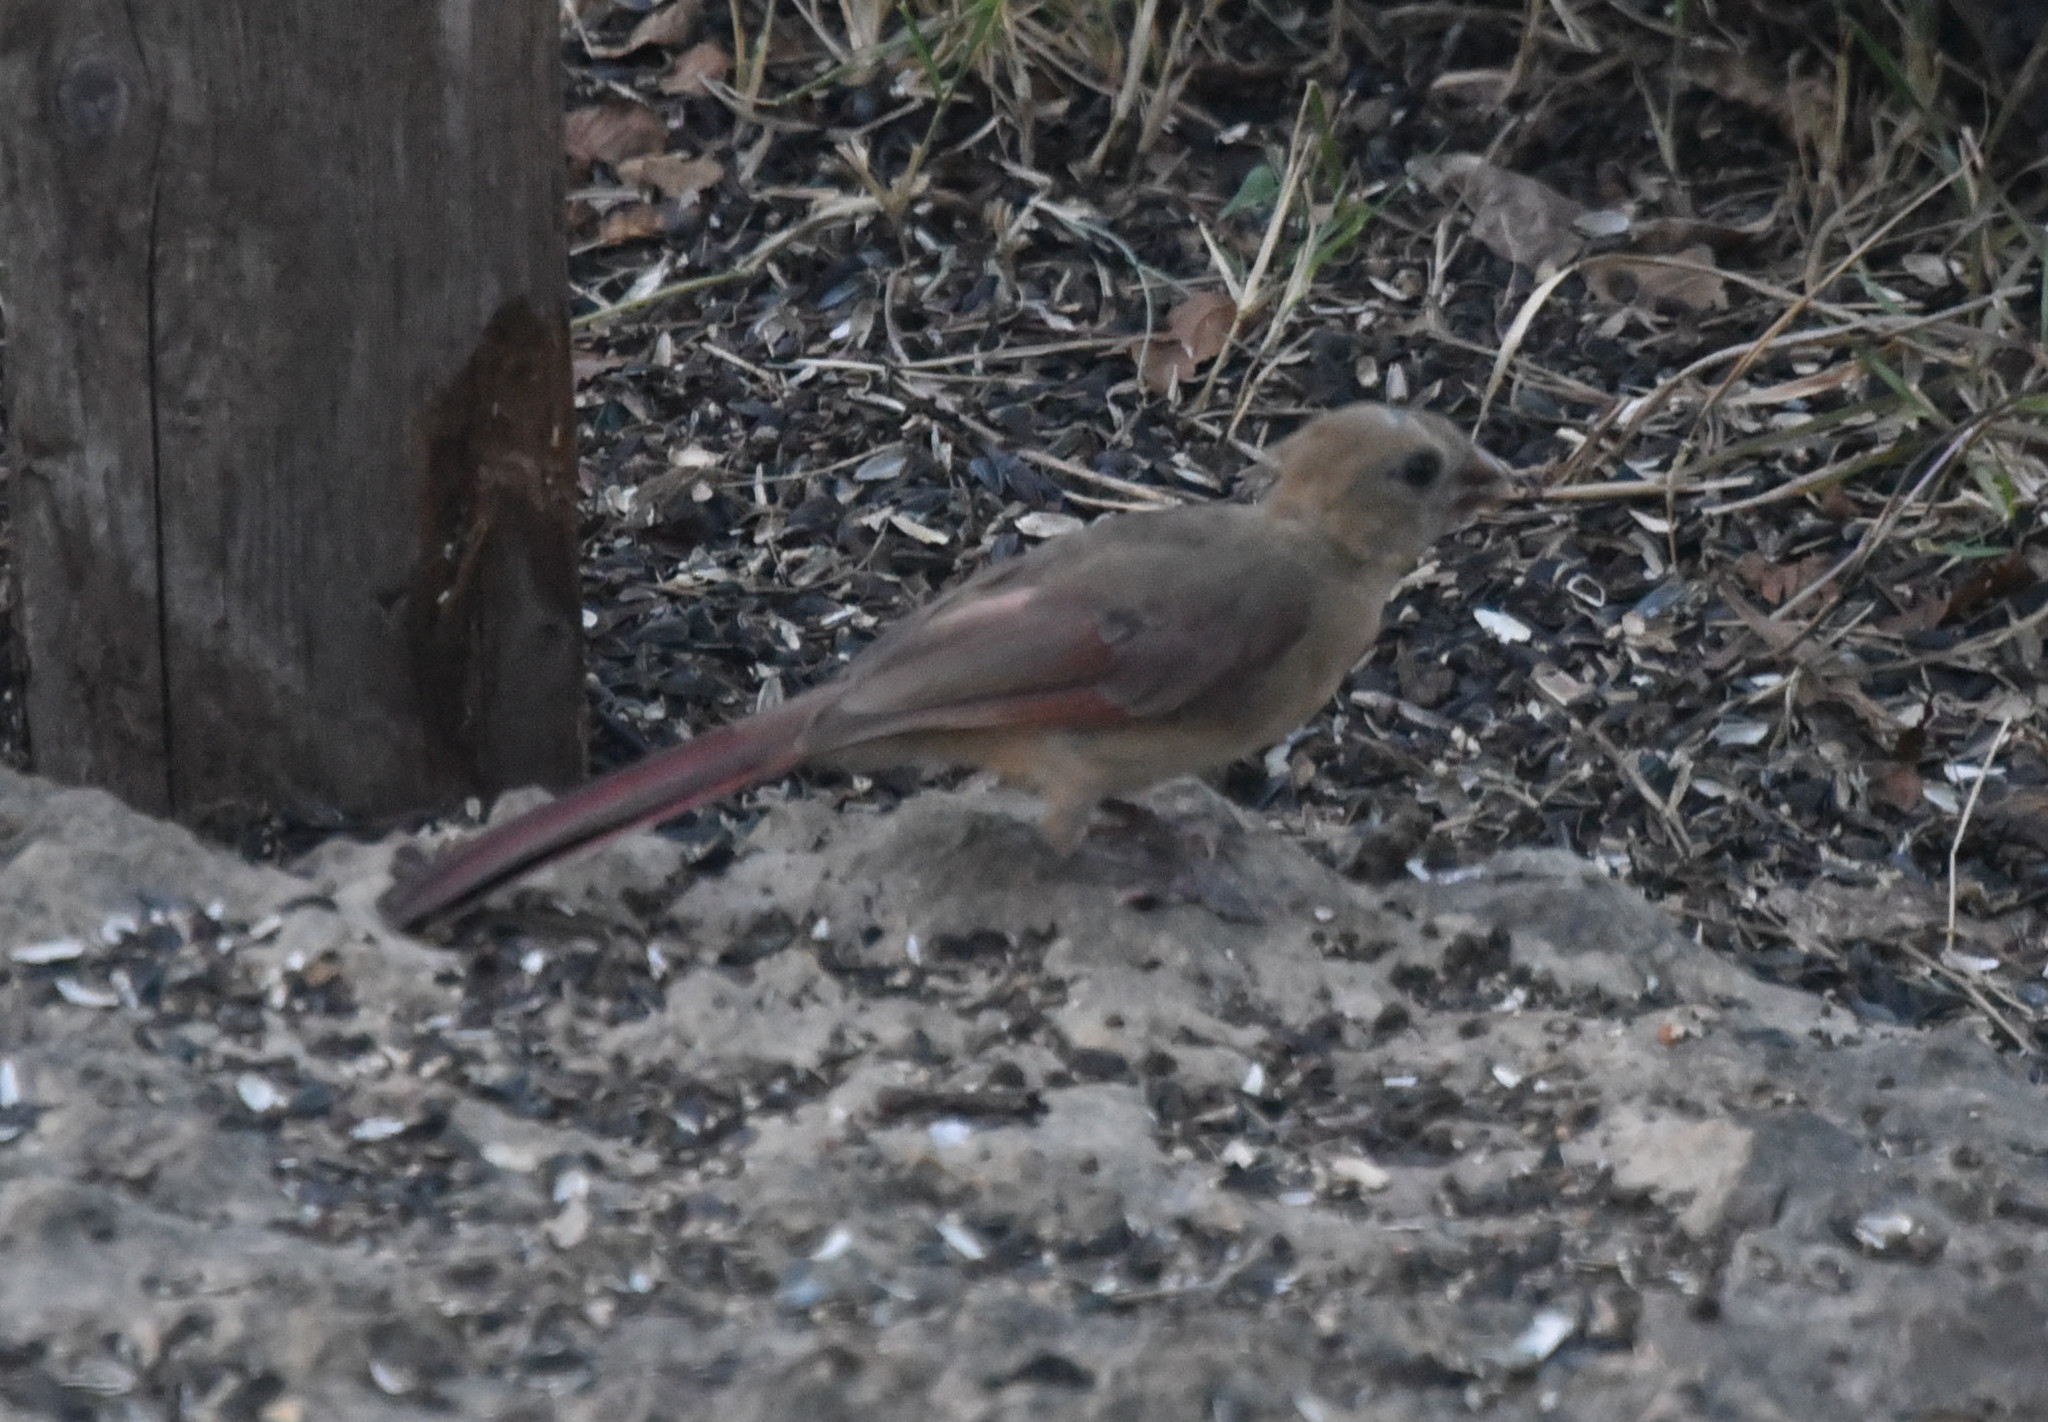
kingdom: Animalia
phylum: Chordata
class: Aves
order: Passeriformes
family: Cardinalidae
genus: Cardinalis
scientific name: Cardinalis cardinalis
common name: Northern cardinal
